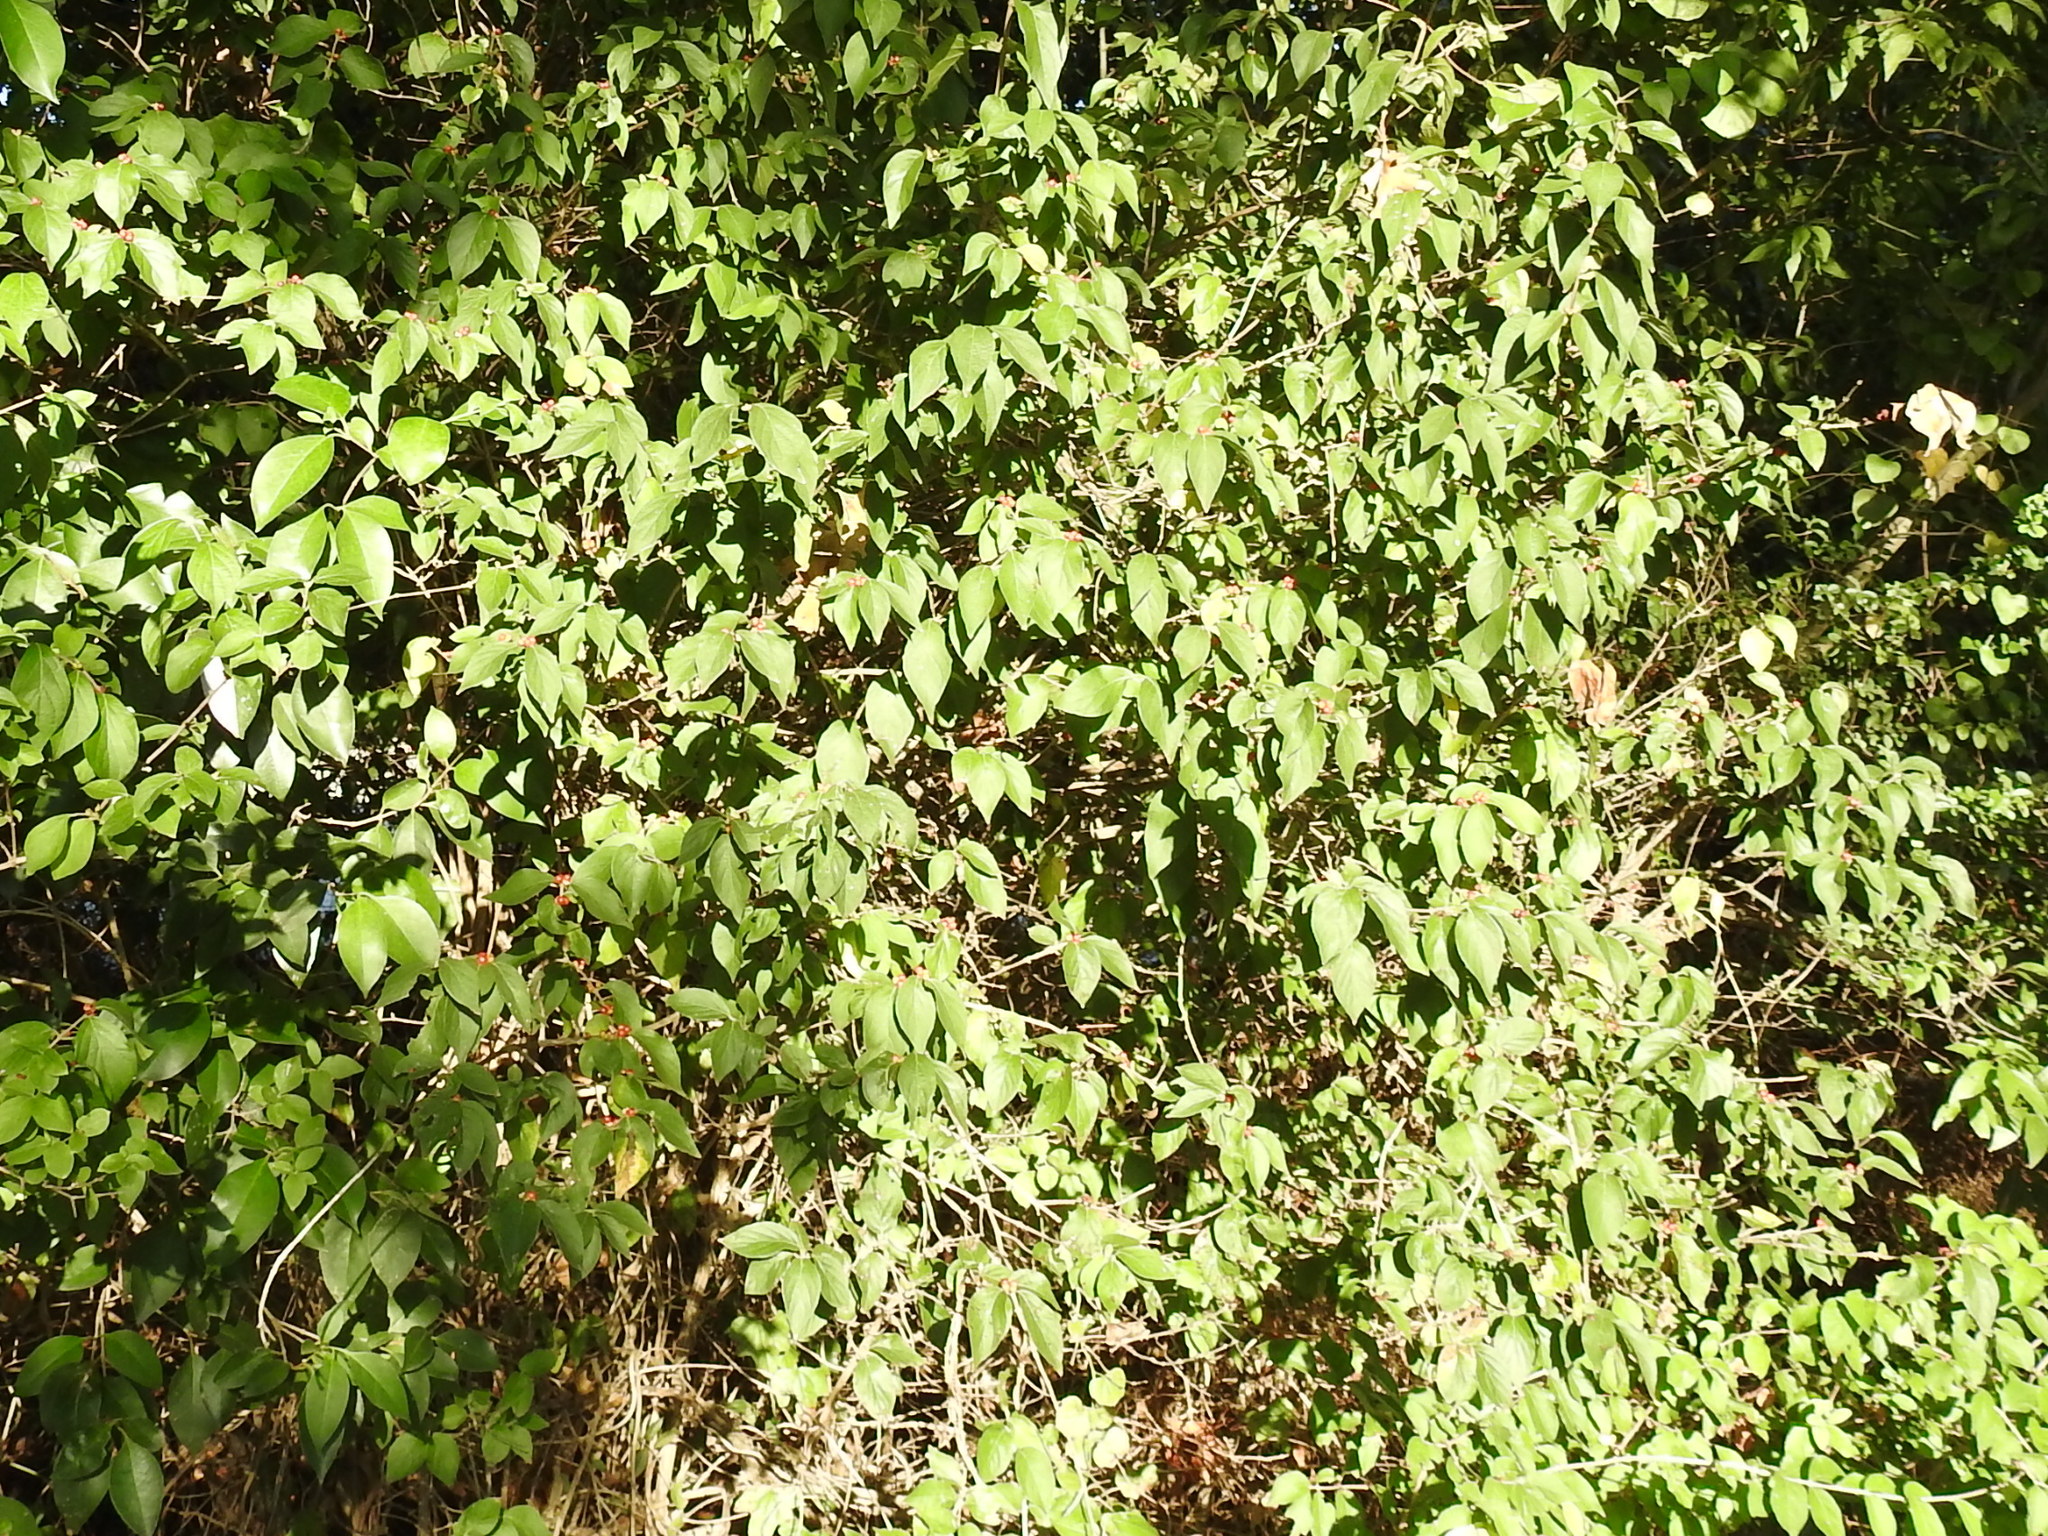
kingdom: Plantae
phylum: Tracheophyta
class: Magnoliopsida
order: Dipsacales
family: Caprifoliaceae
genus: Lonicera
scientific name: Lonicera maackii
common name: Amur honeysuckle
